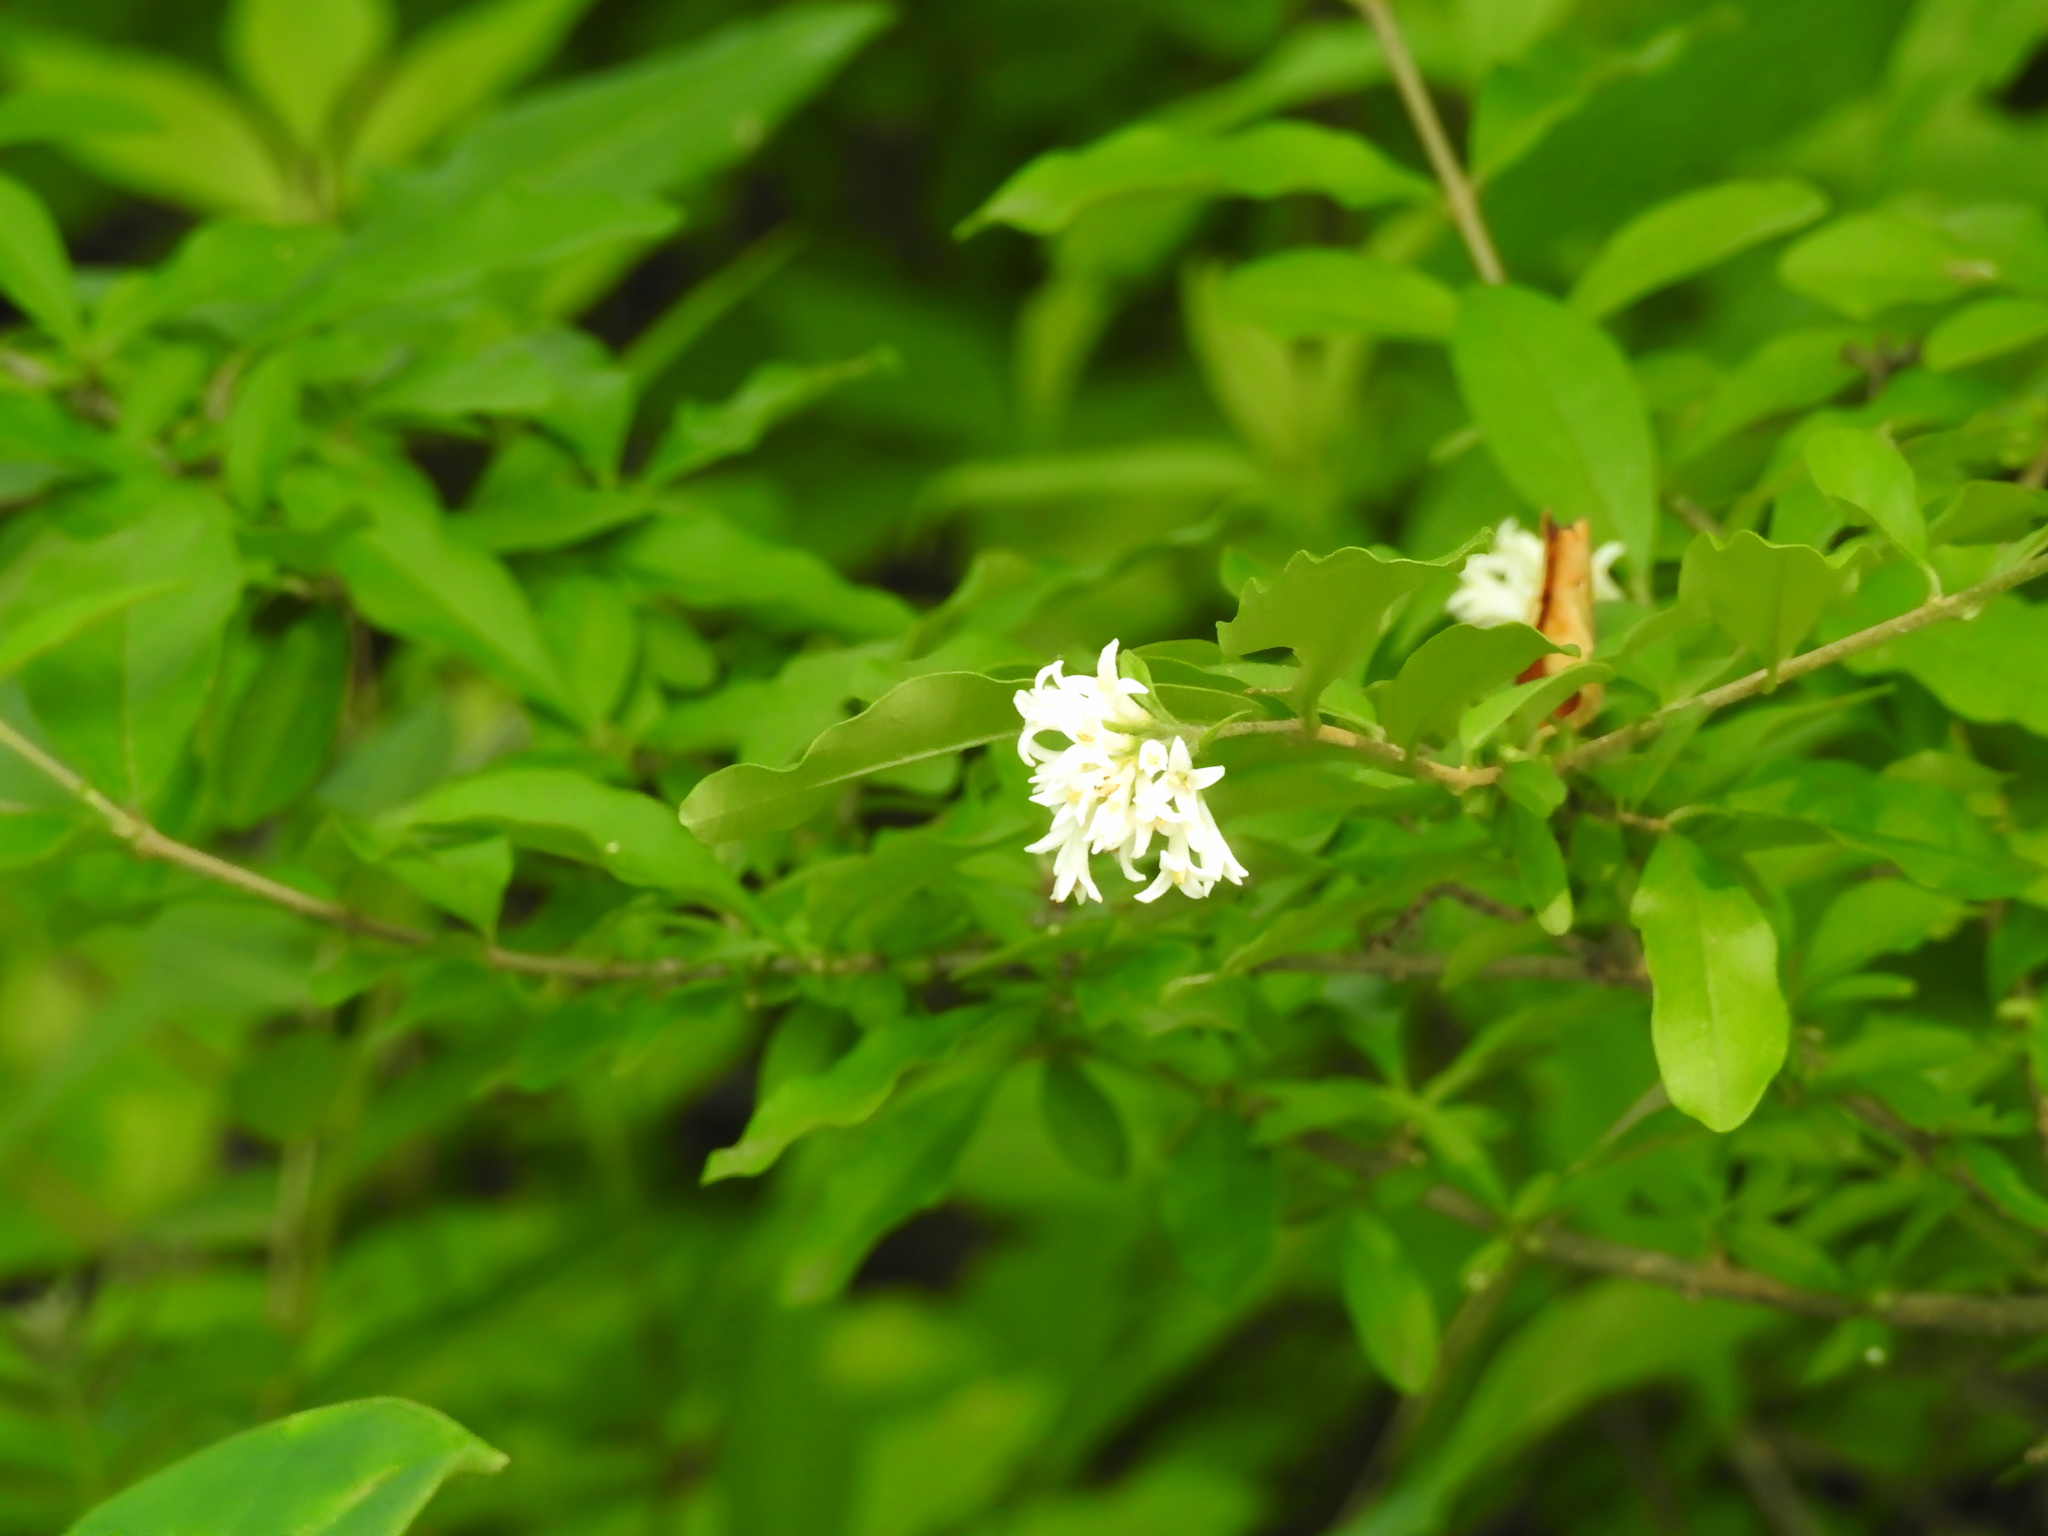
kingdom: Plantae
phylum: Tracheophyta
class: Magnoliopsida
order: Lamiales
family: Oleaceae
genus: Ligustrum
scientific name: Ligustrum obtusifolium
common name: Border privet
